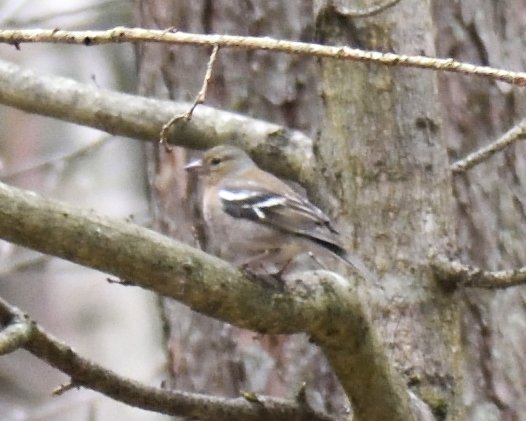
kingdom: Animalia
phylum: Chordata
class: Aves
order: Passeriformes
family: Fringillidae
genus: Fringilla
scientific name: Fringilla coelebs
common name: Common chaffinch
